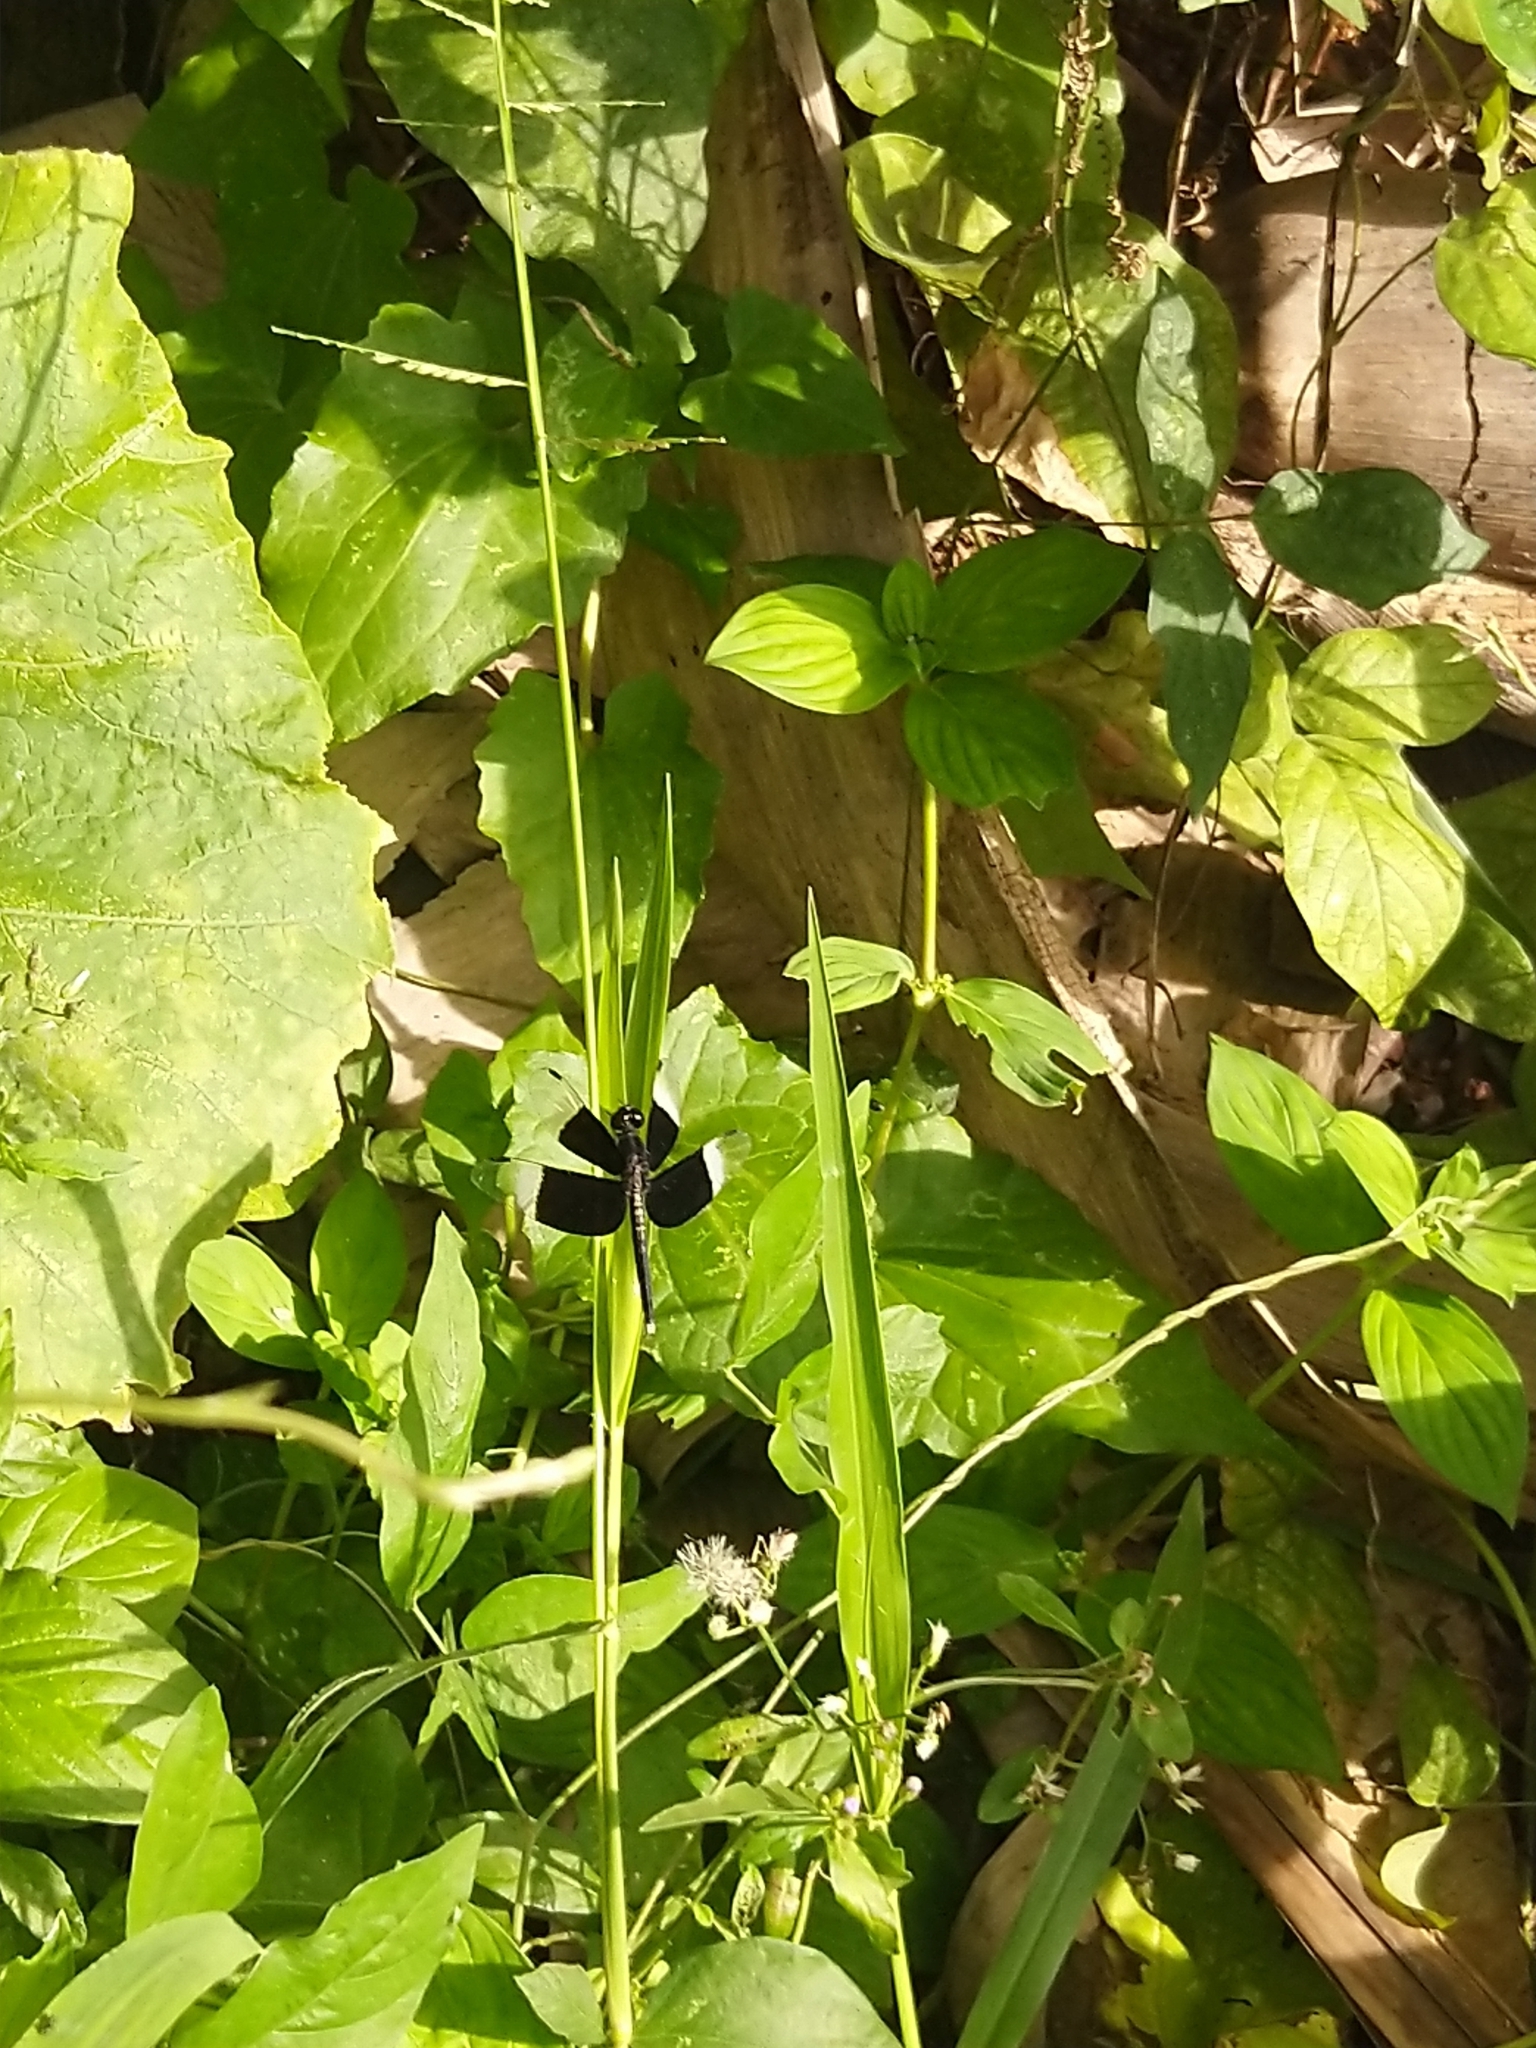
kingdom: Animalia
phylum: Arthropoda
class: Insecta
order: Odonata
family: Libellulidae
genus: Neurothemis
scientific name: Neurothemis tullia
